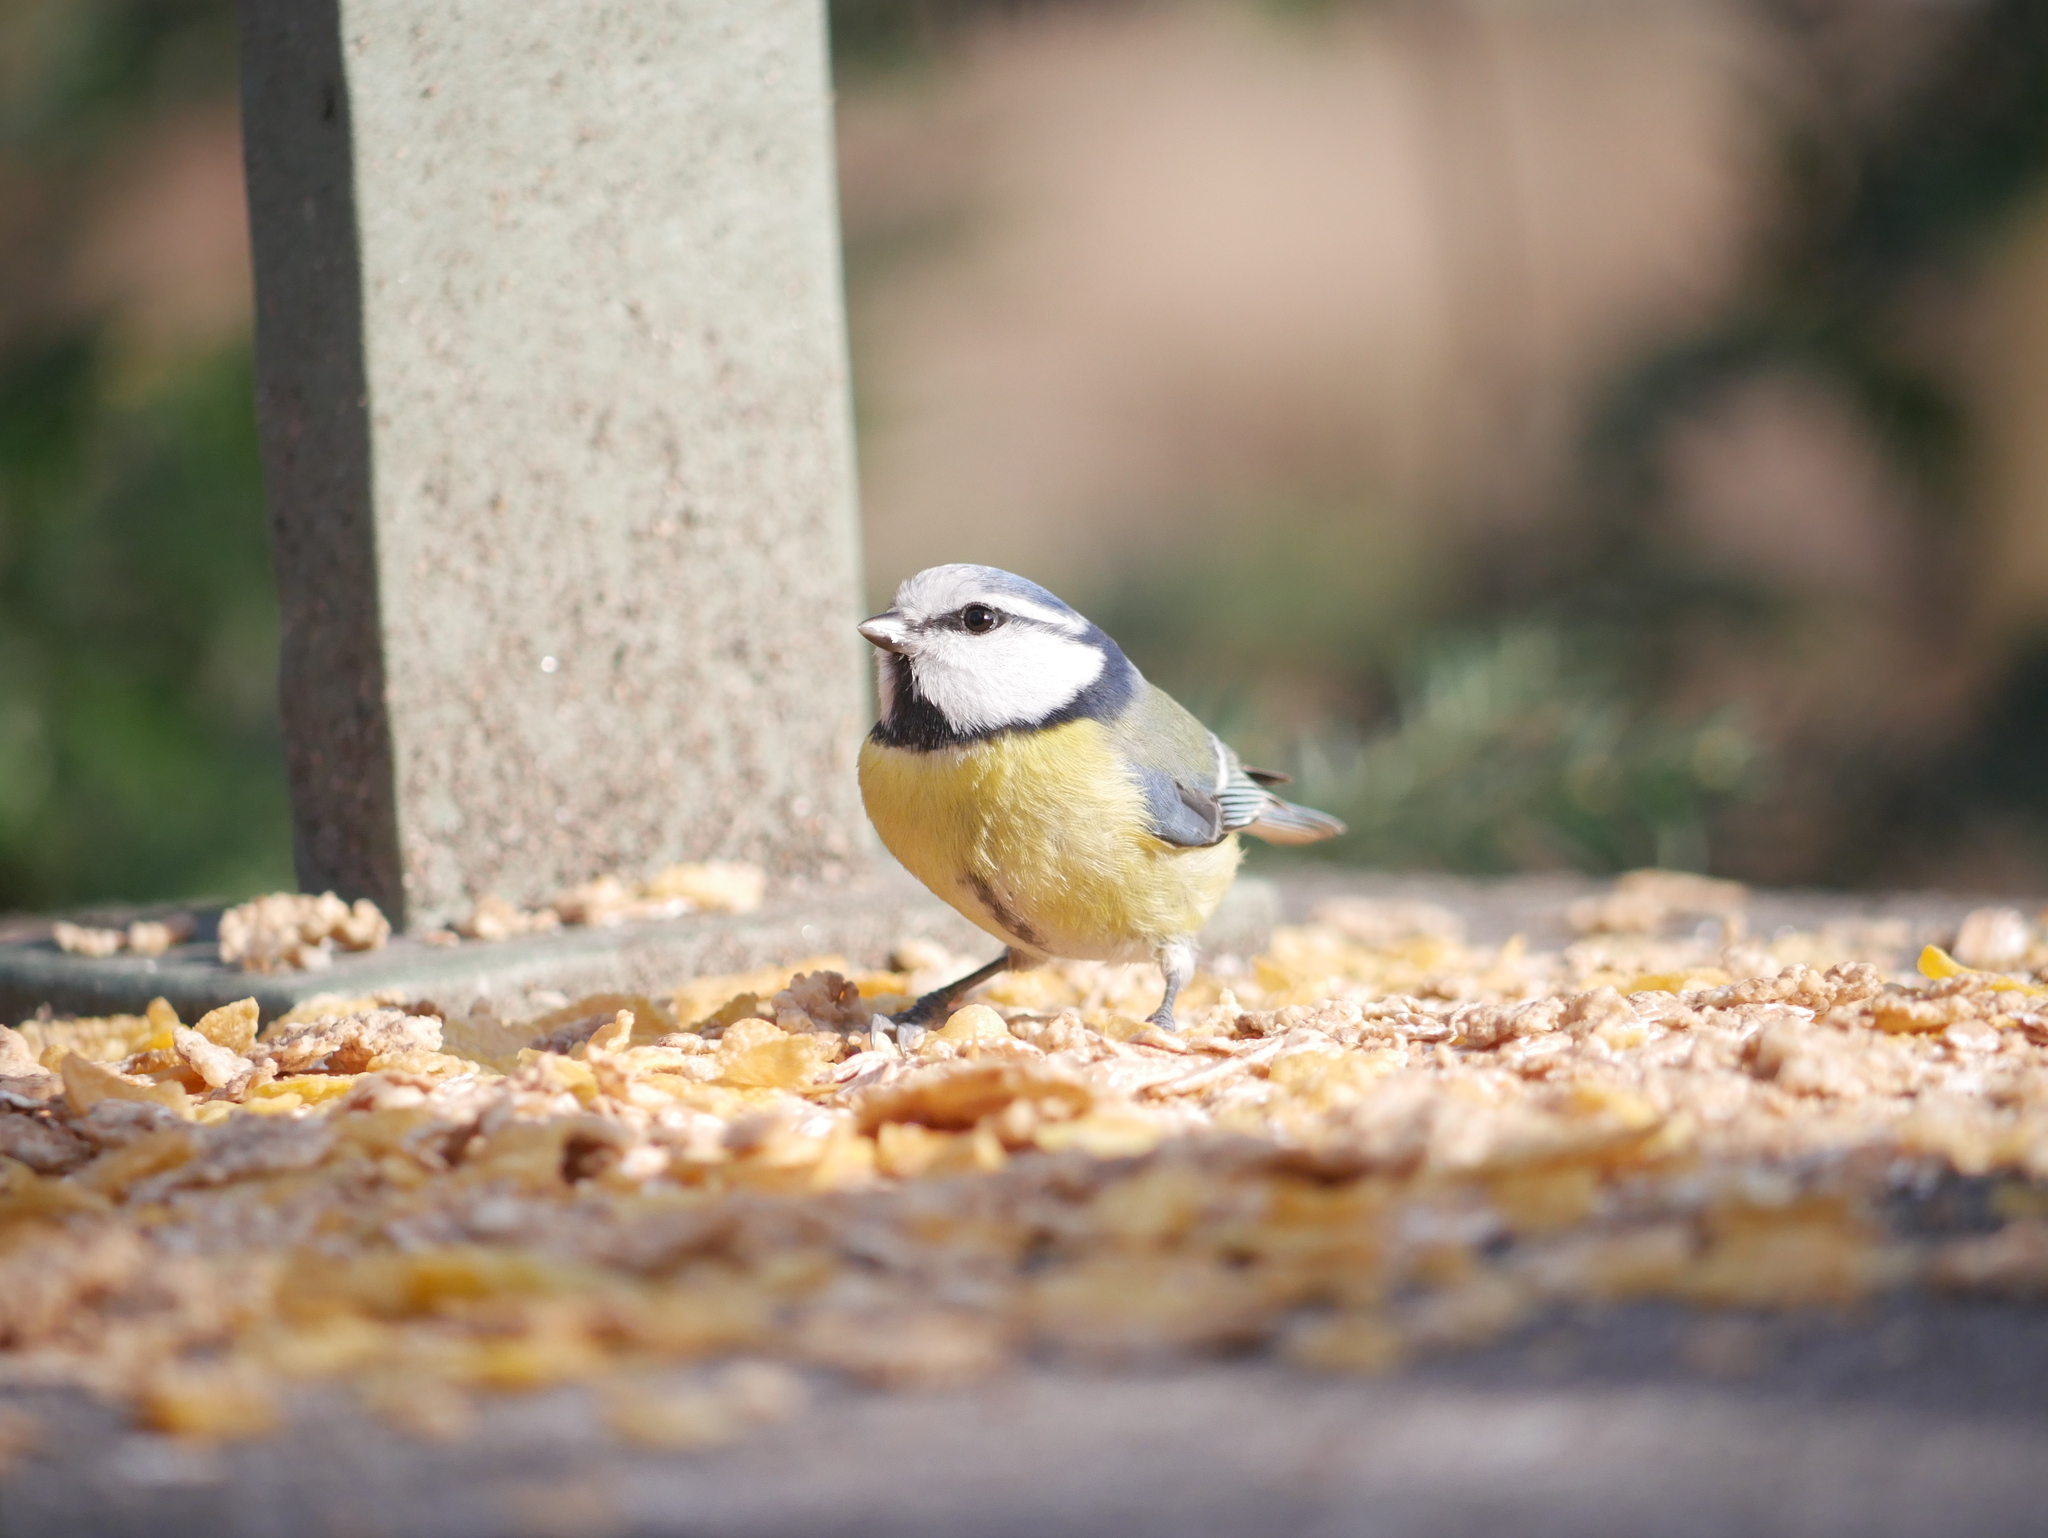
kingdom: Animalia
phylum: Chordata
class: Aves
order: Passeriformes
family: Paridae
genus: Cyanistes
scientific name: Cyanistes caeruleus
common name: Eurasian blue tit
